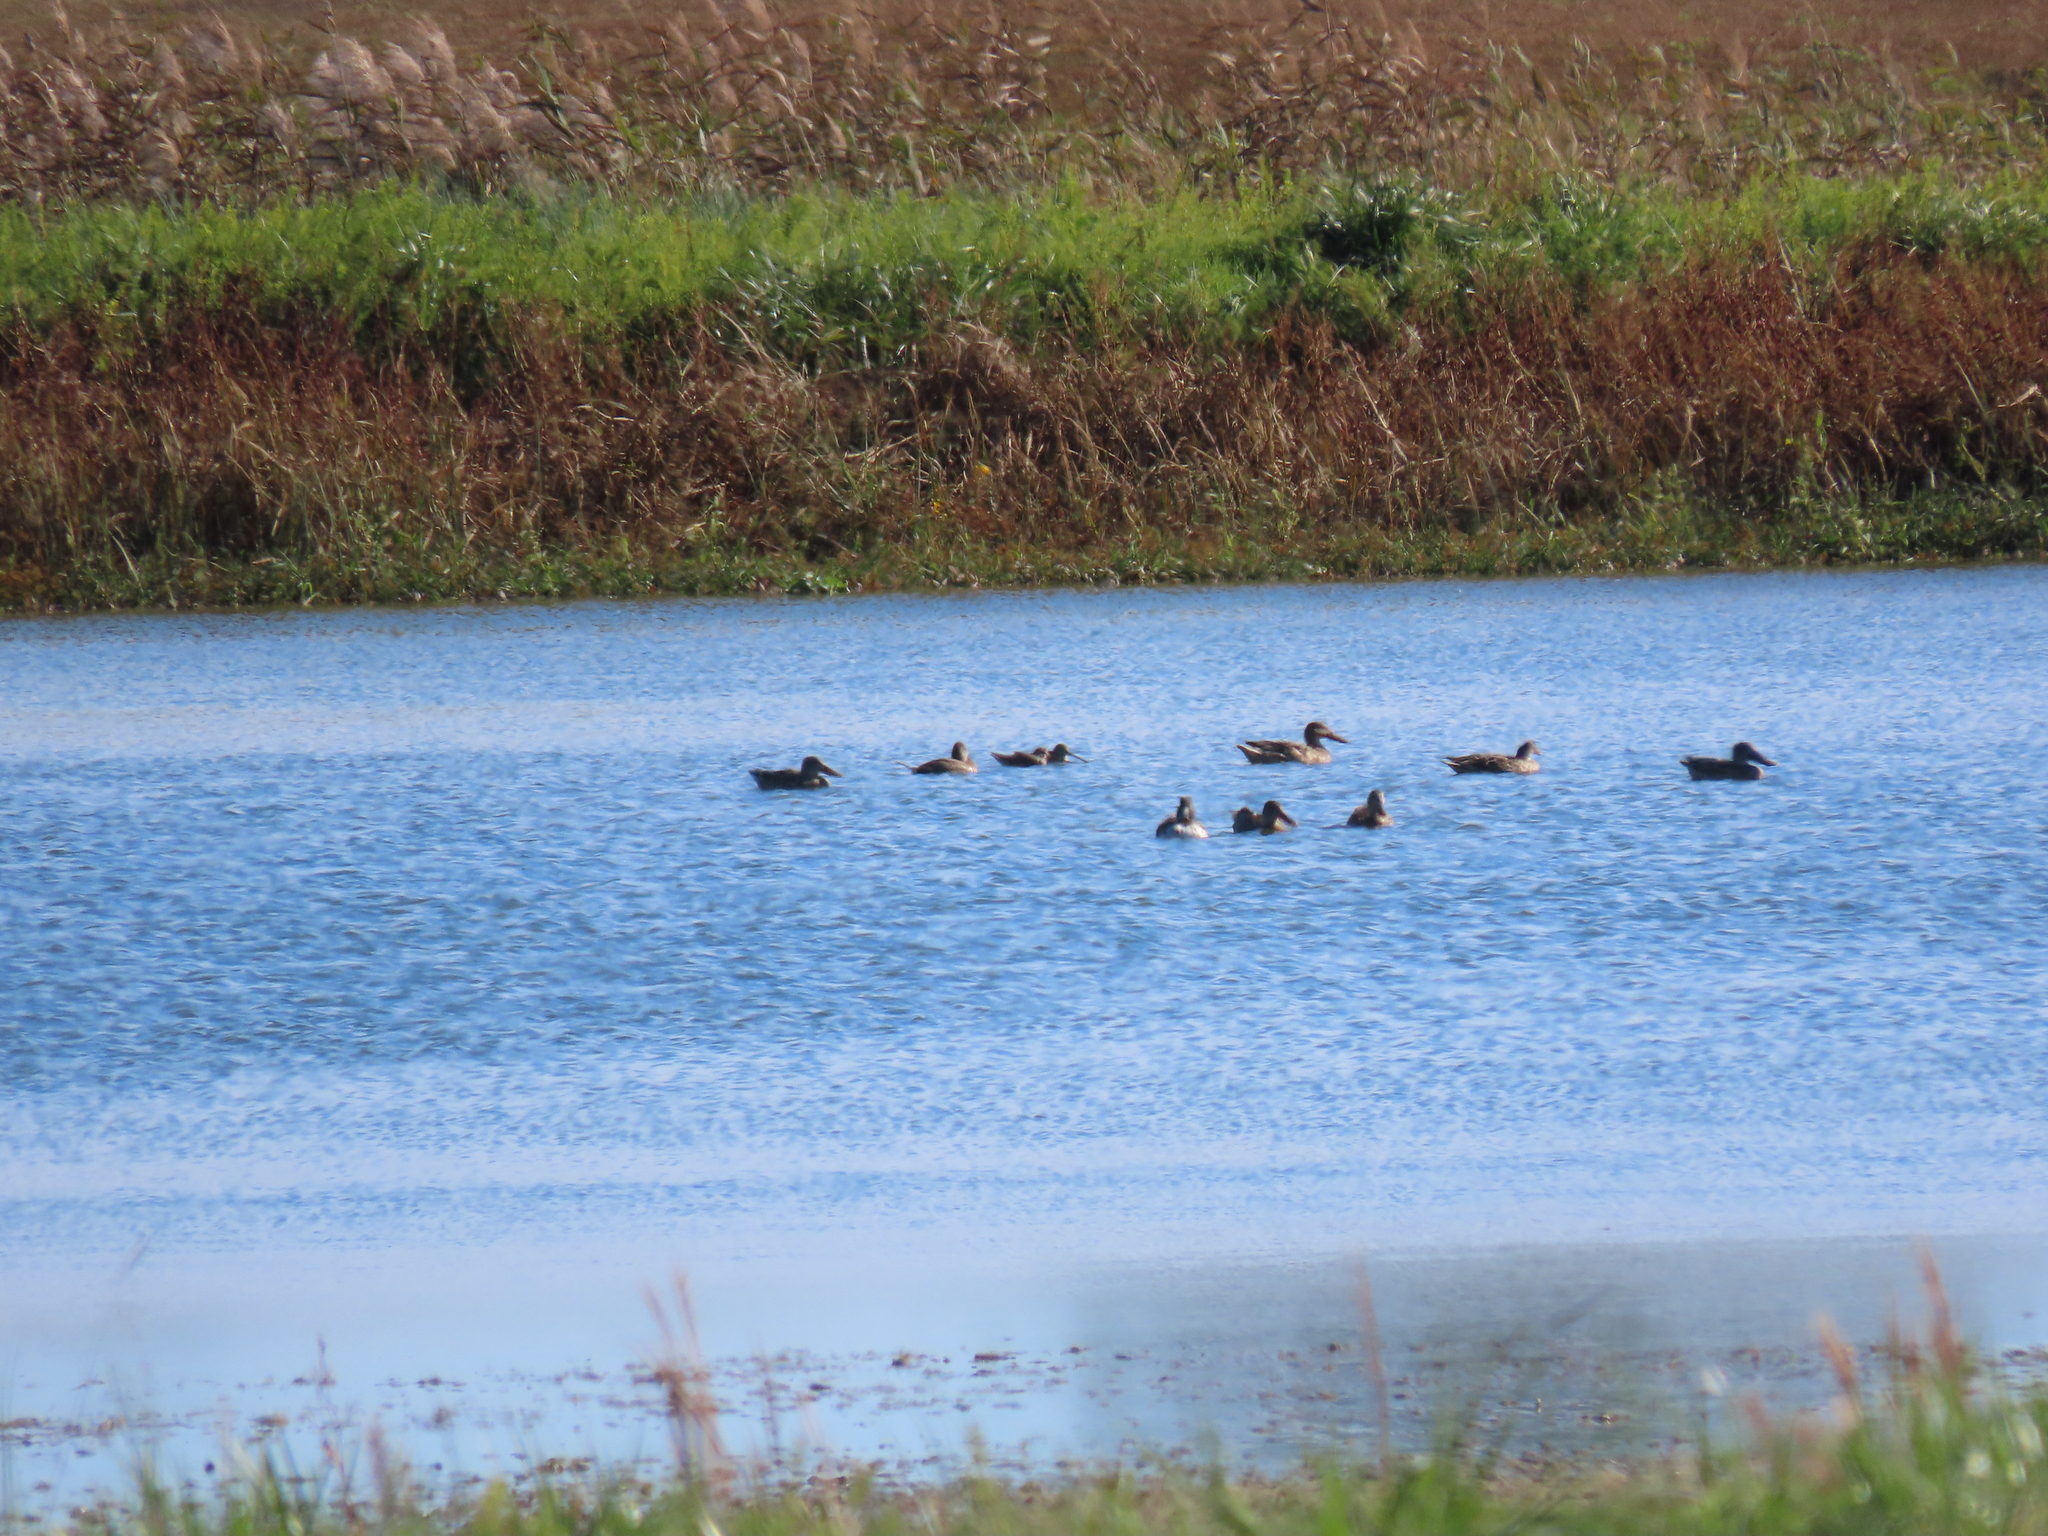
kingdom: Animalia
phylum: Chordata
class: Aves
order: Anseriformes
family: Anatidae
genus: Spatula
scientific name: Spatula clypeata
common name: Northern shoveler
